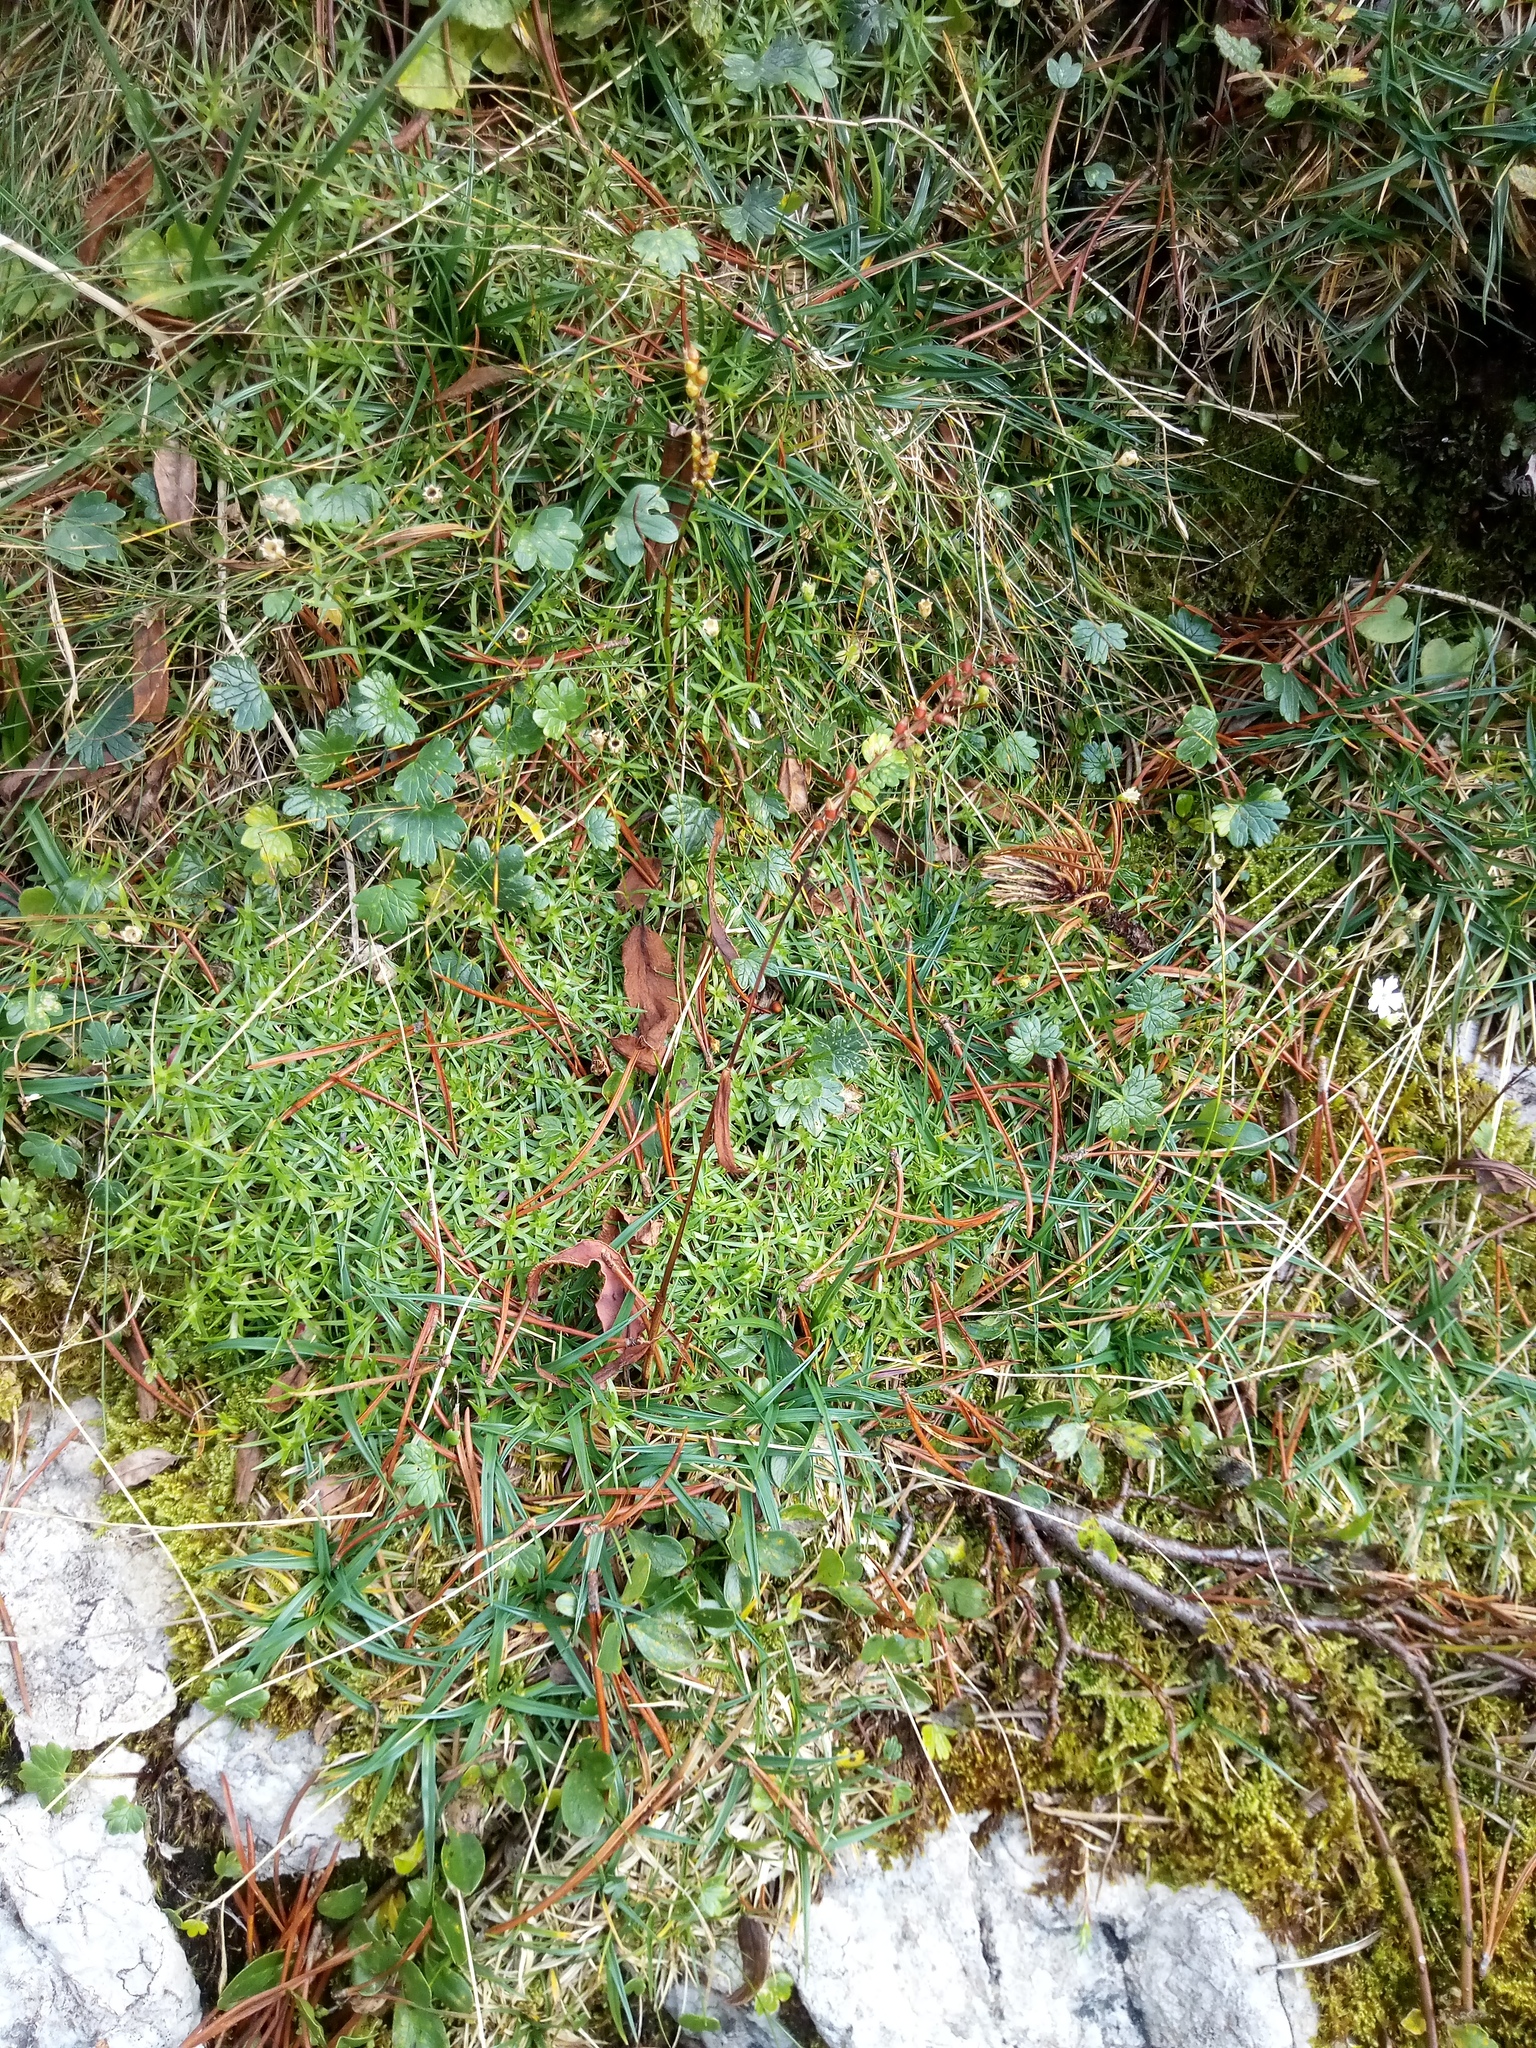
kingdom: Plantae
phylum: Tracheophyta
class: Magnoliopsida
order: Caryophyllales
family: Caryophyllaceae
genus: Silene
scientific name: Silene acaulis
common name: Moss campion
